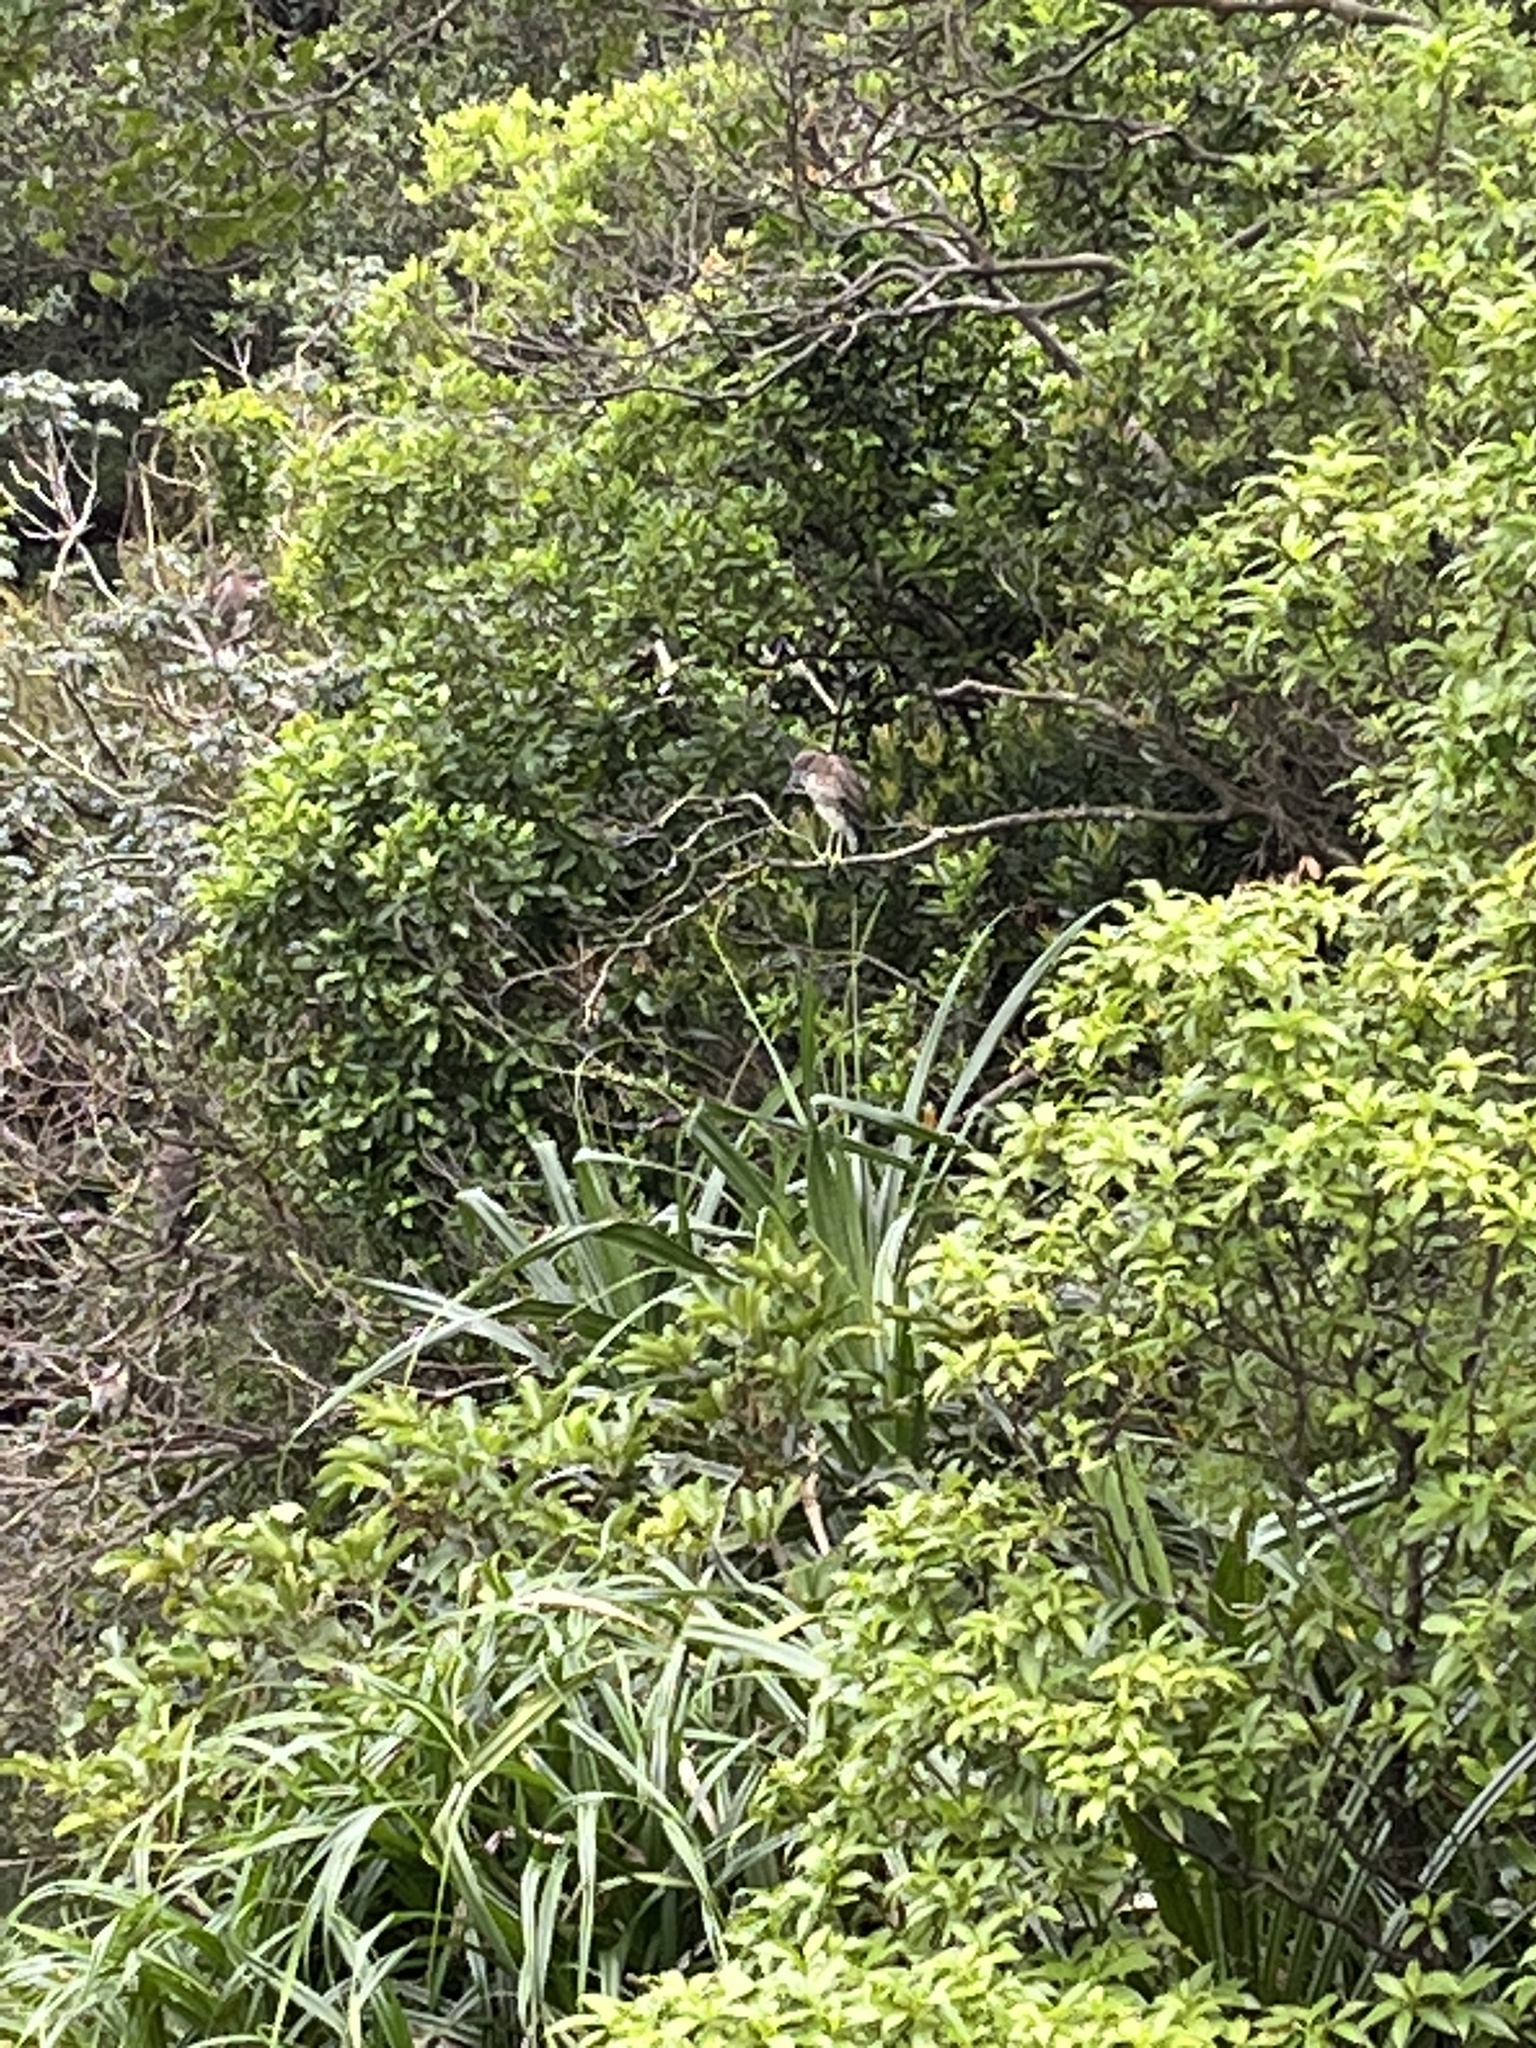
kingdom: Animalia
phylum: Chordata
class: Aves
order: Pelecaniformes
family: Ardeidae
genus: Nycticorax
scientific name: Nycticorax nycticorax
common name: Black-crowned night heron
